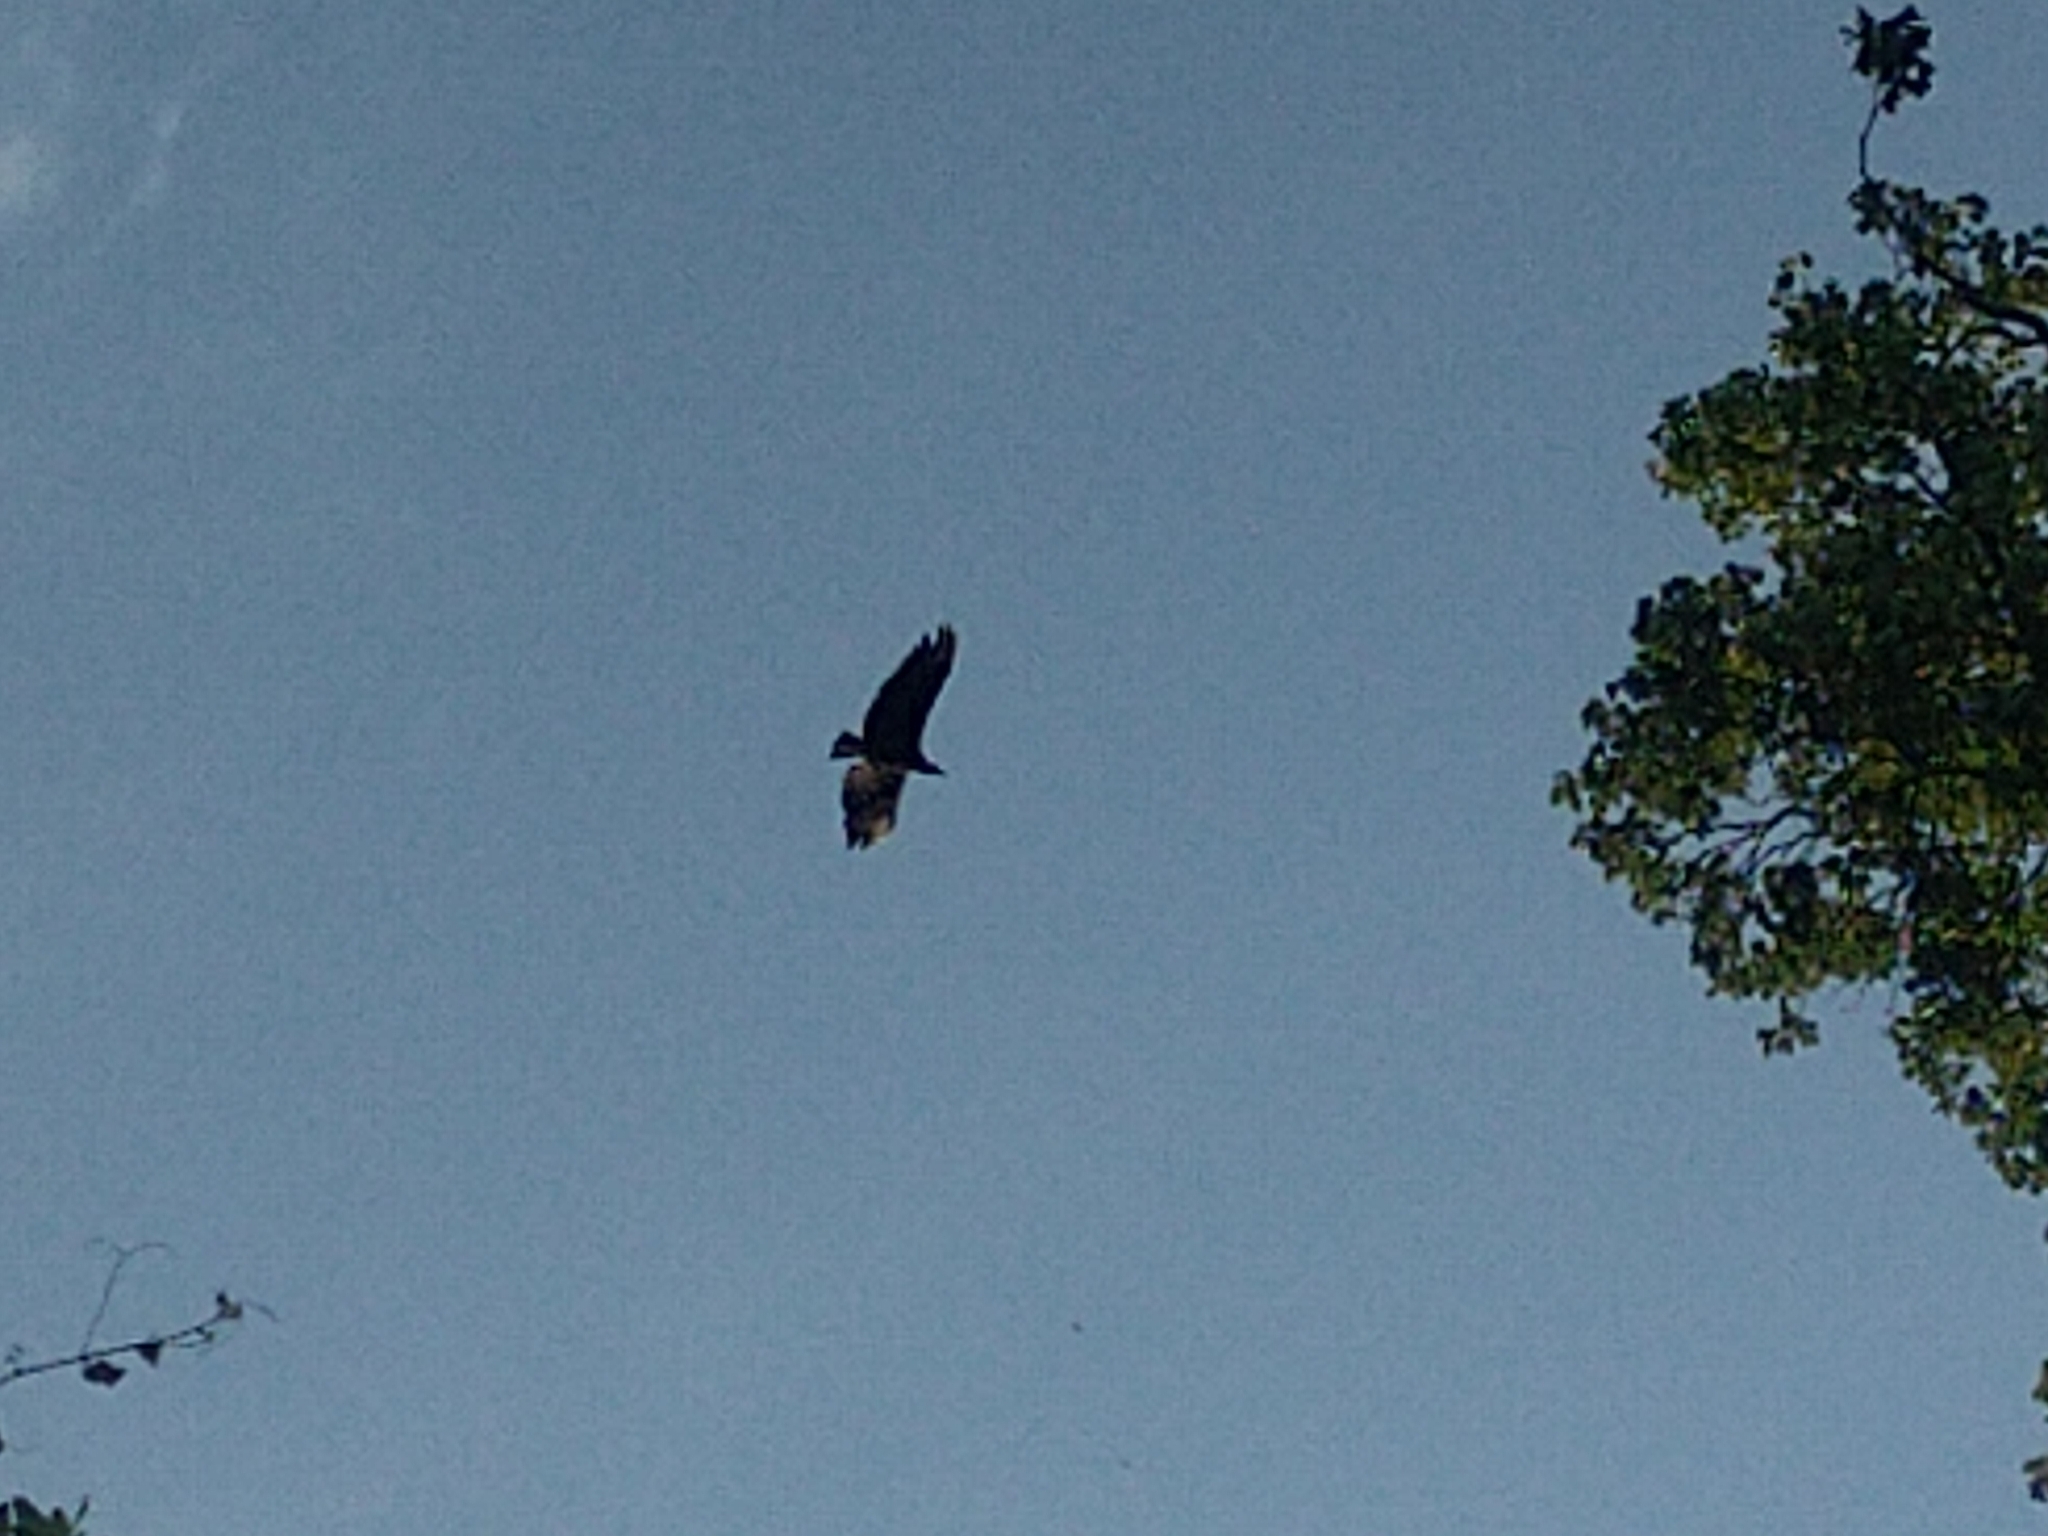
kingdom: Animalia
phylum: Chordata
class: Aves
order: Accipitriformes
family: Cathartidae
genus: Coragyps
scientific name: Coragyps atratus
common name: Black vulture
